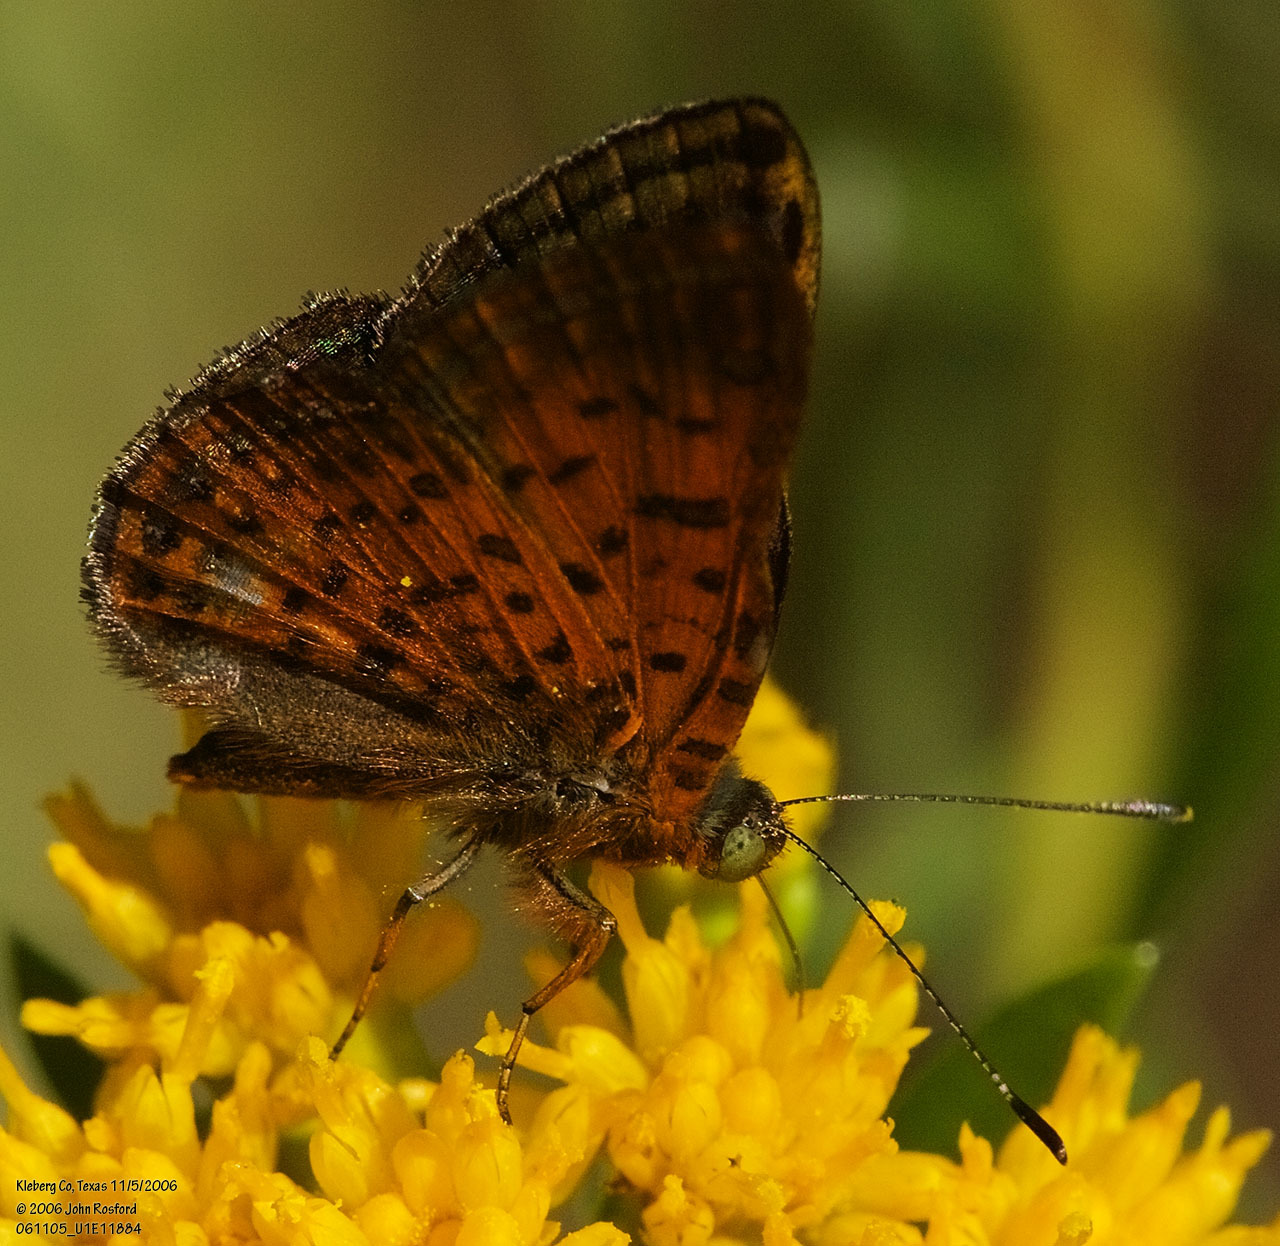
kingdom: Animalia
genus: Caria
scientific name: Caria ino
